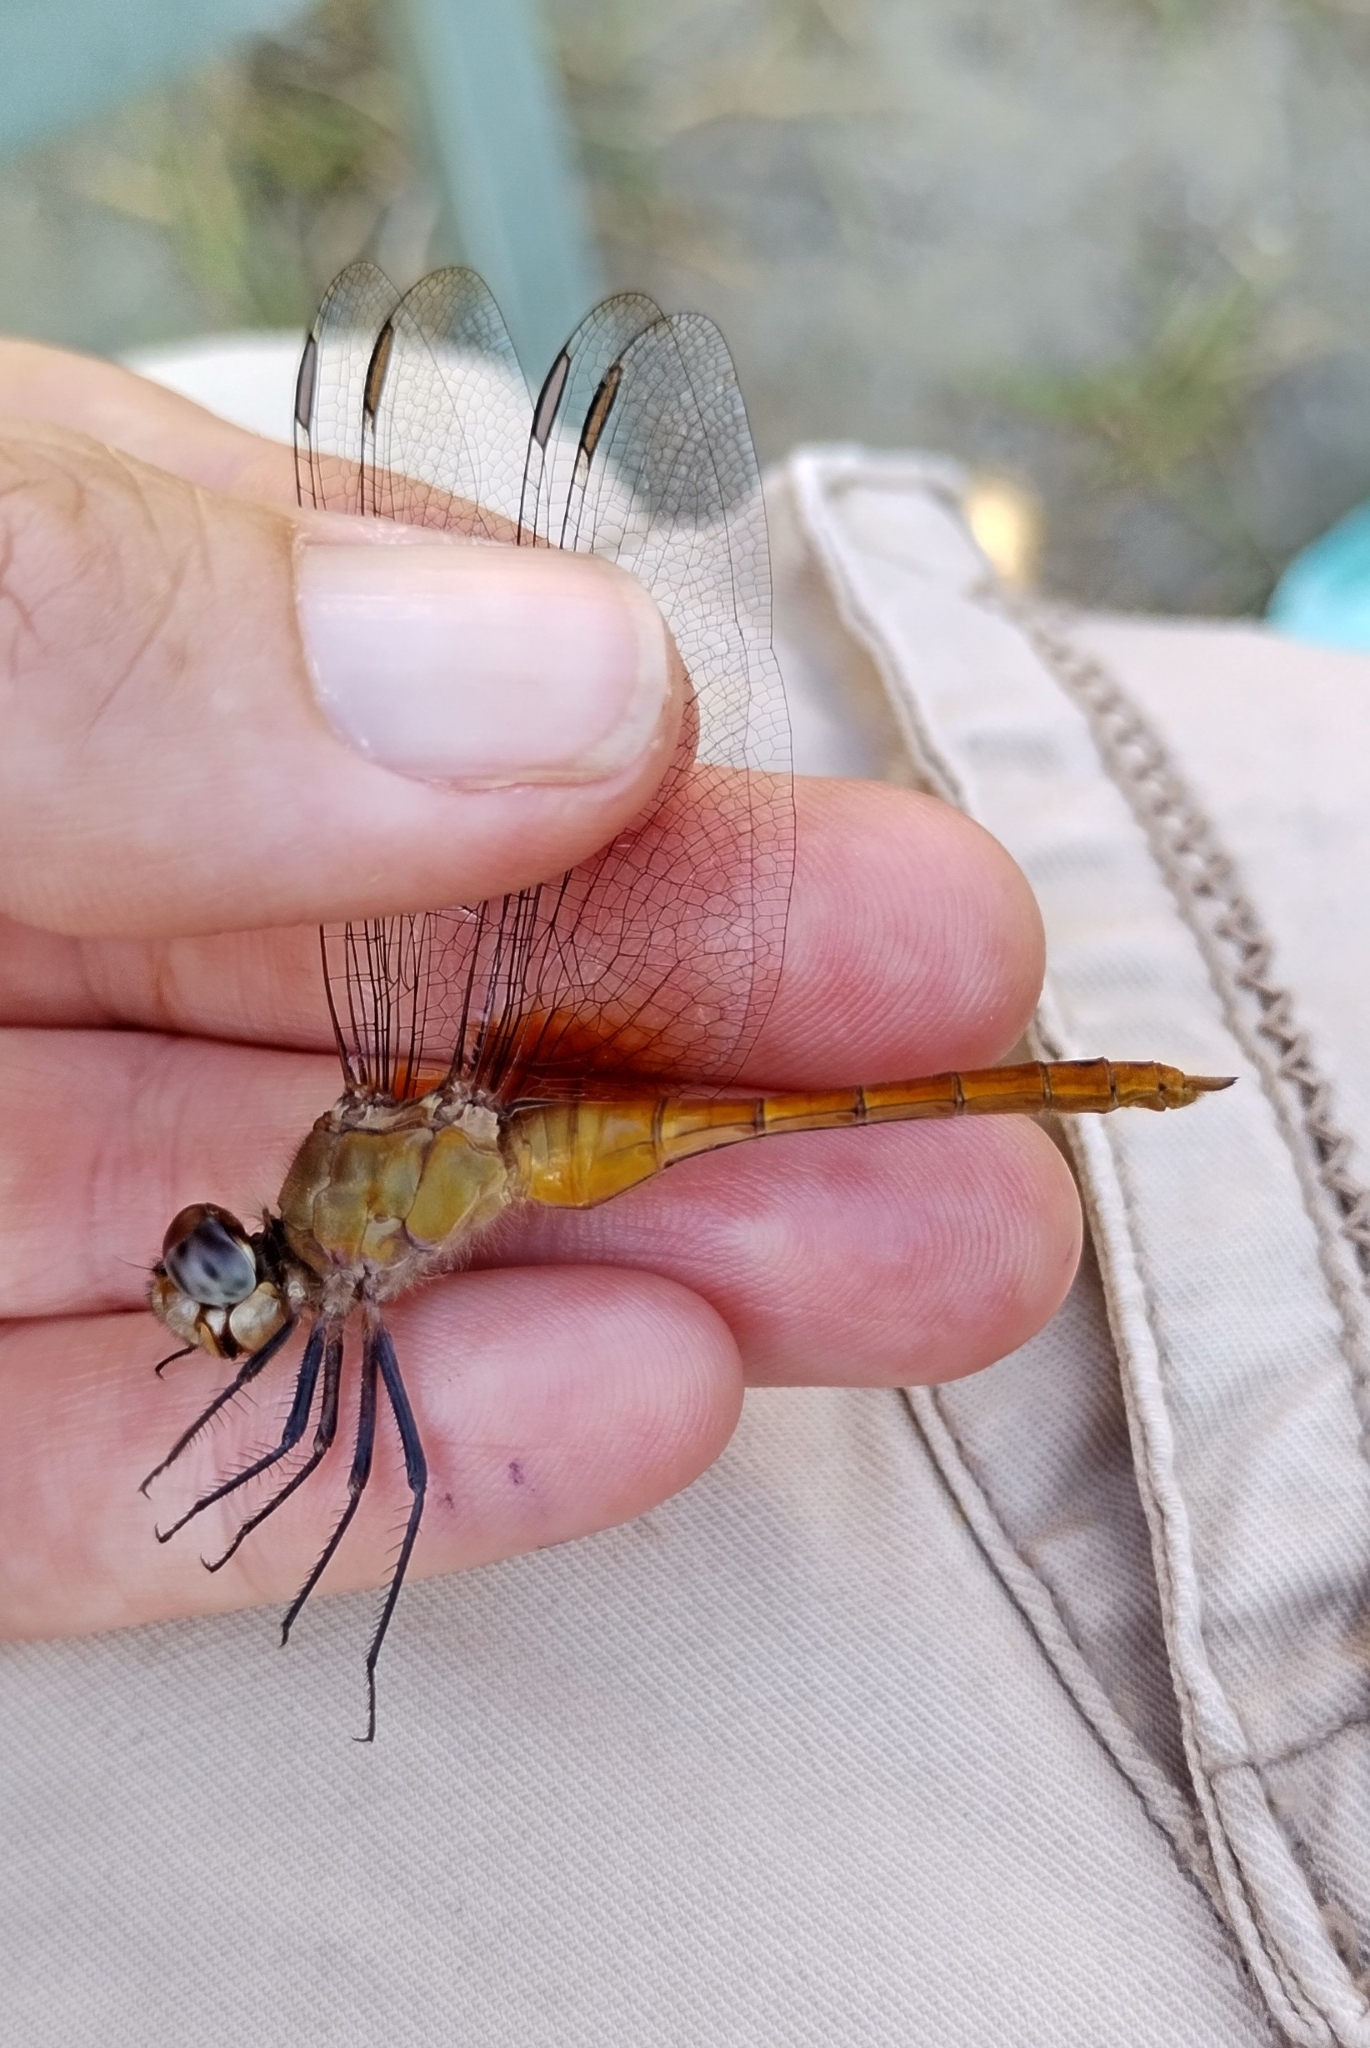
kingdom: Animalia
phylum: Arthropoda
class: Insecta
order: Odonata
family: Libellulidae
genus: Brachymesia
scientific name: Brachymesia furcata
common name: Red-taled pennant
